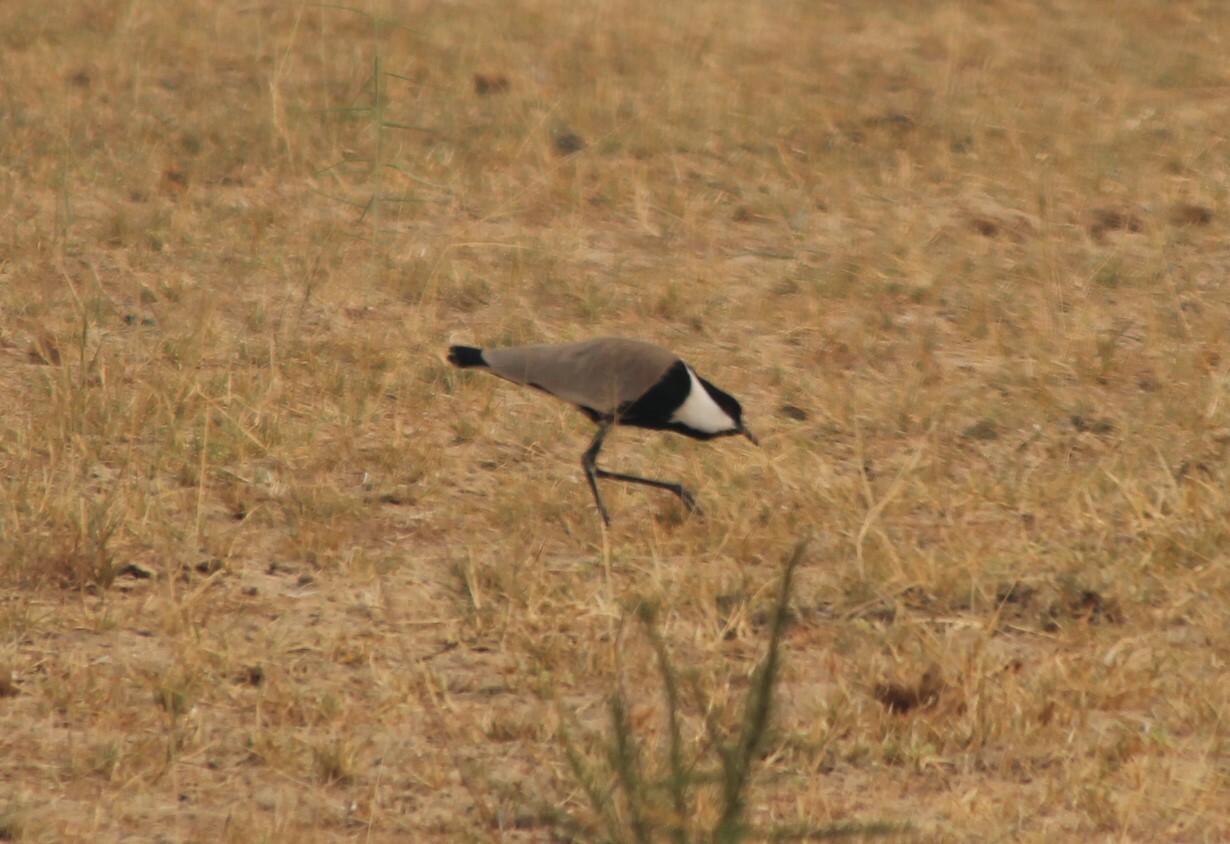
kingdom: Animalia
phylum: Chordata
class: Aves
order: Charadriiformes
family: Charadriidae
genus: Vanellus
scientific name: Vanellus spinosus
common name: Spur-winged lapwing
